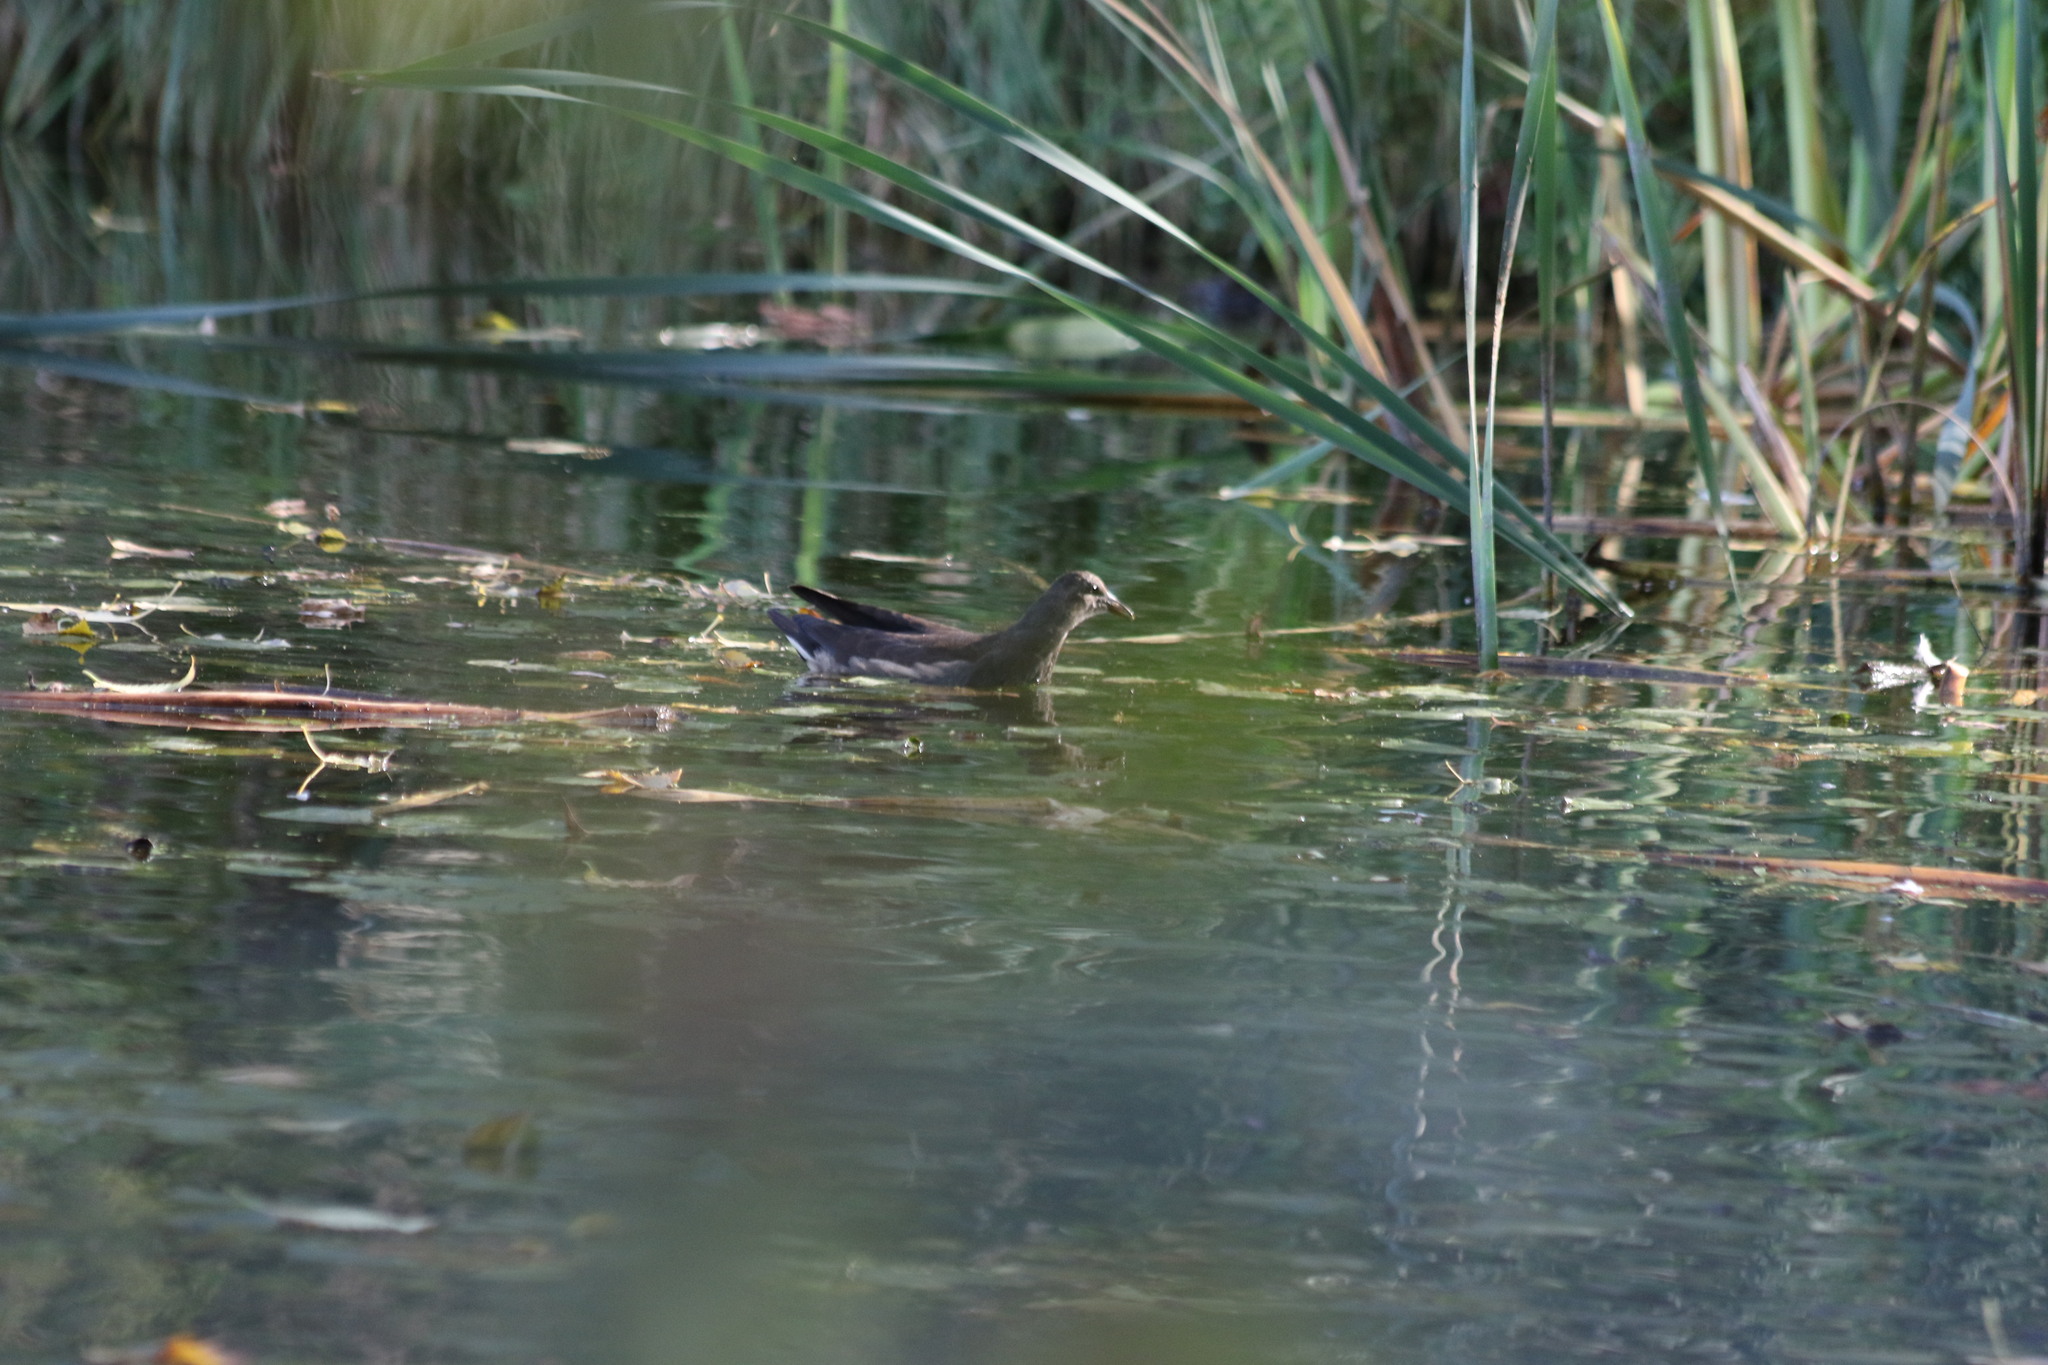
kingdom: Animalia
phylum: Chordata
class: Aves
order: Gruiformes
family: Rallidae
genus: Gallinula
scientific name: Gallinula chloropus
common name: Common moorhen
